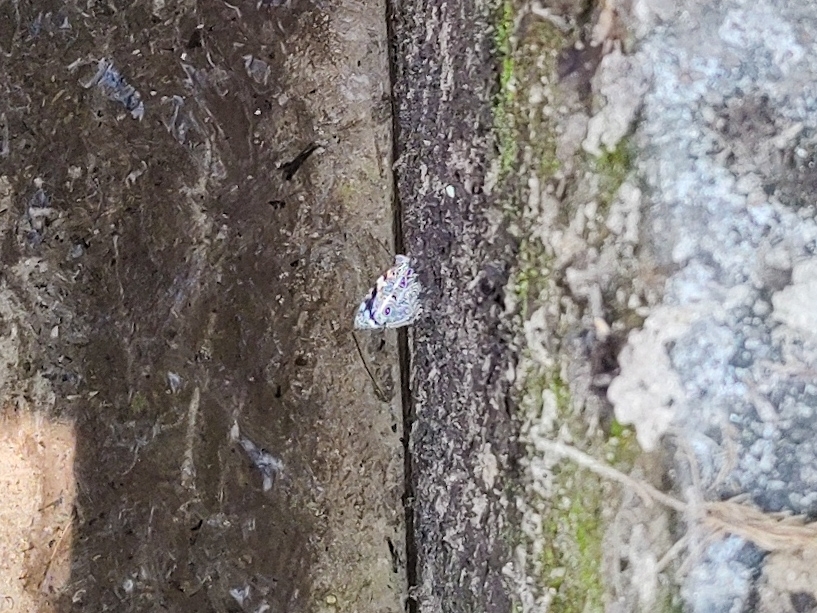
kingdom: Animalia
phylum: Arthropoda
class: Insecta
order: Lepidoptera
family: Nymphalidae
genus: Smyrna
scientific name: Smyrna blomfildia
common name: Blomfild's beauty
